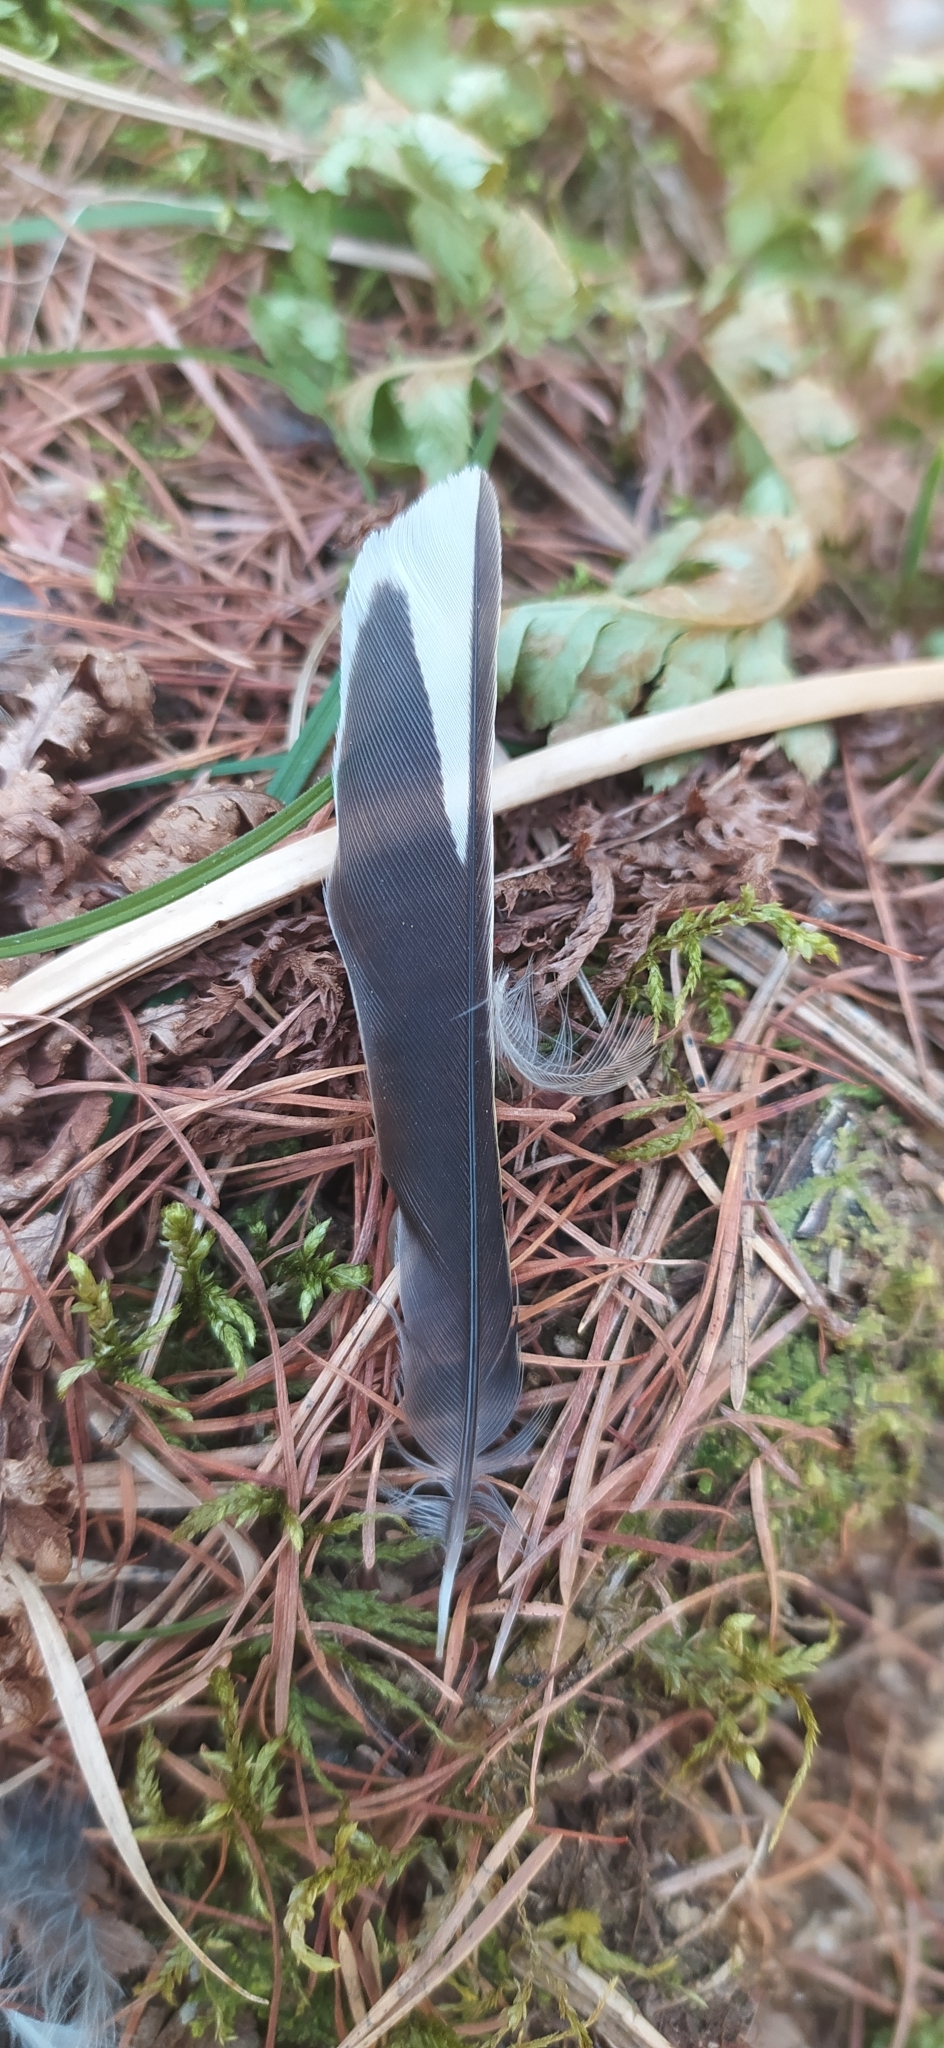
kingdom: Animalia
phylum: Chordata
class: Aves
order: Passeriformes
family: Fringillidae
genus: Fringilla
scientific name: Fringilla coelebs
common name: Common chaffinch
